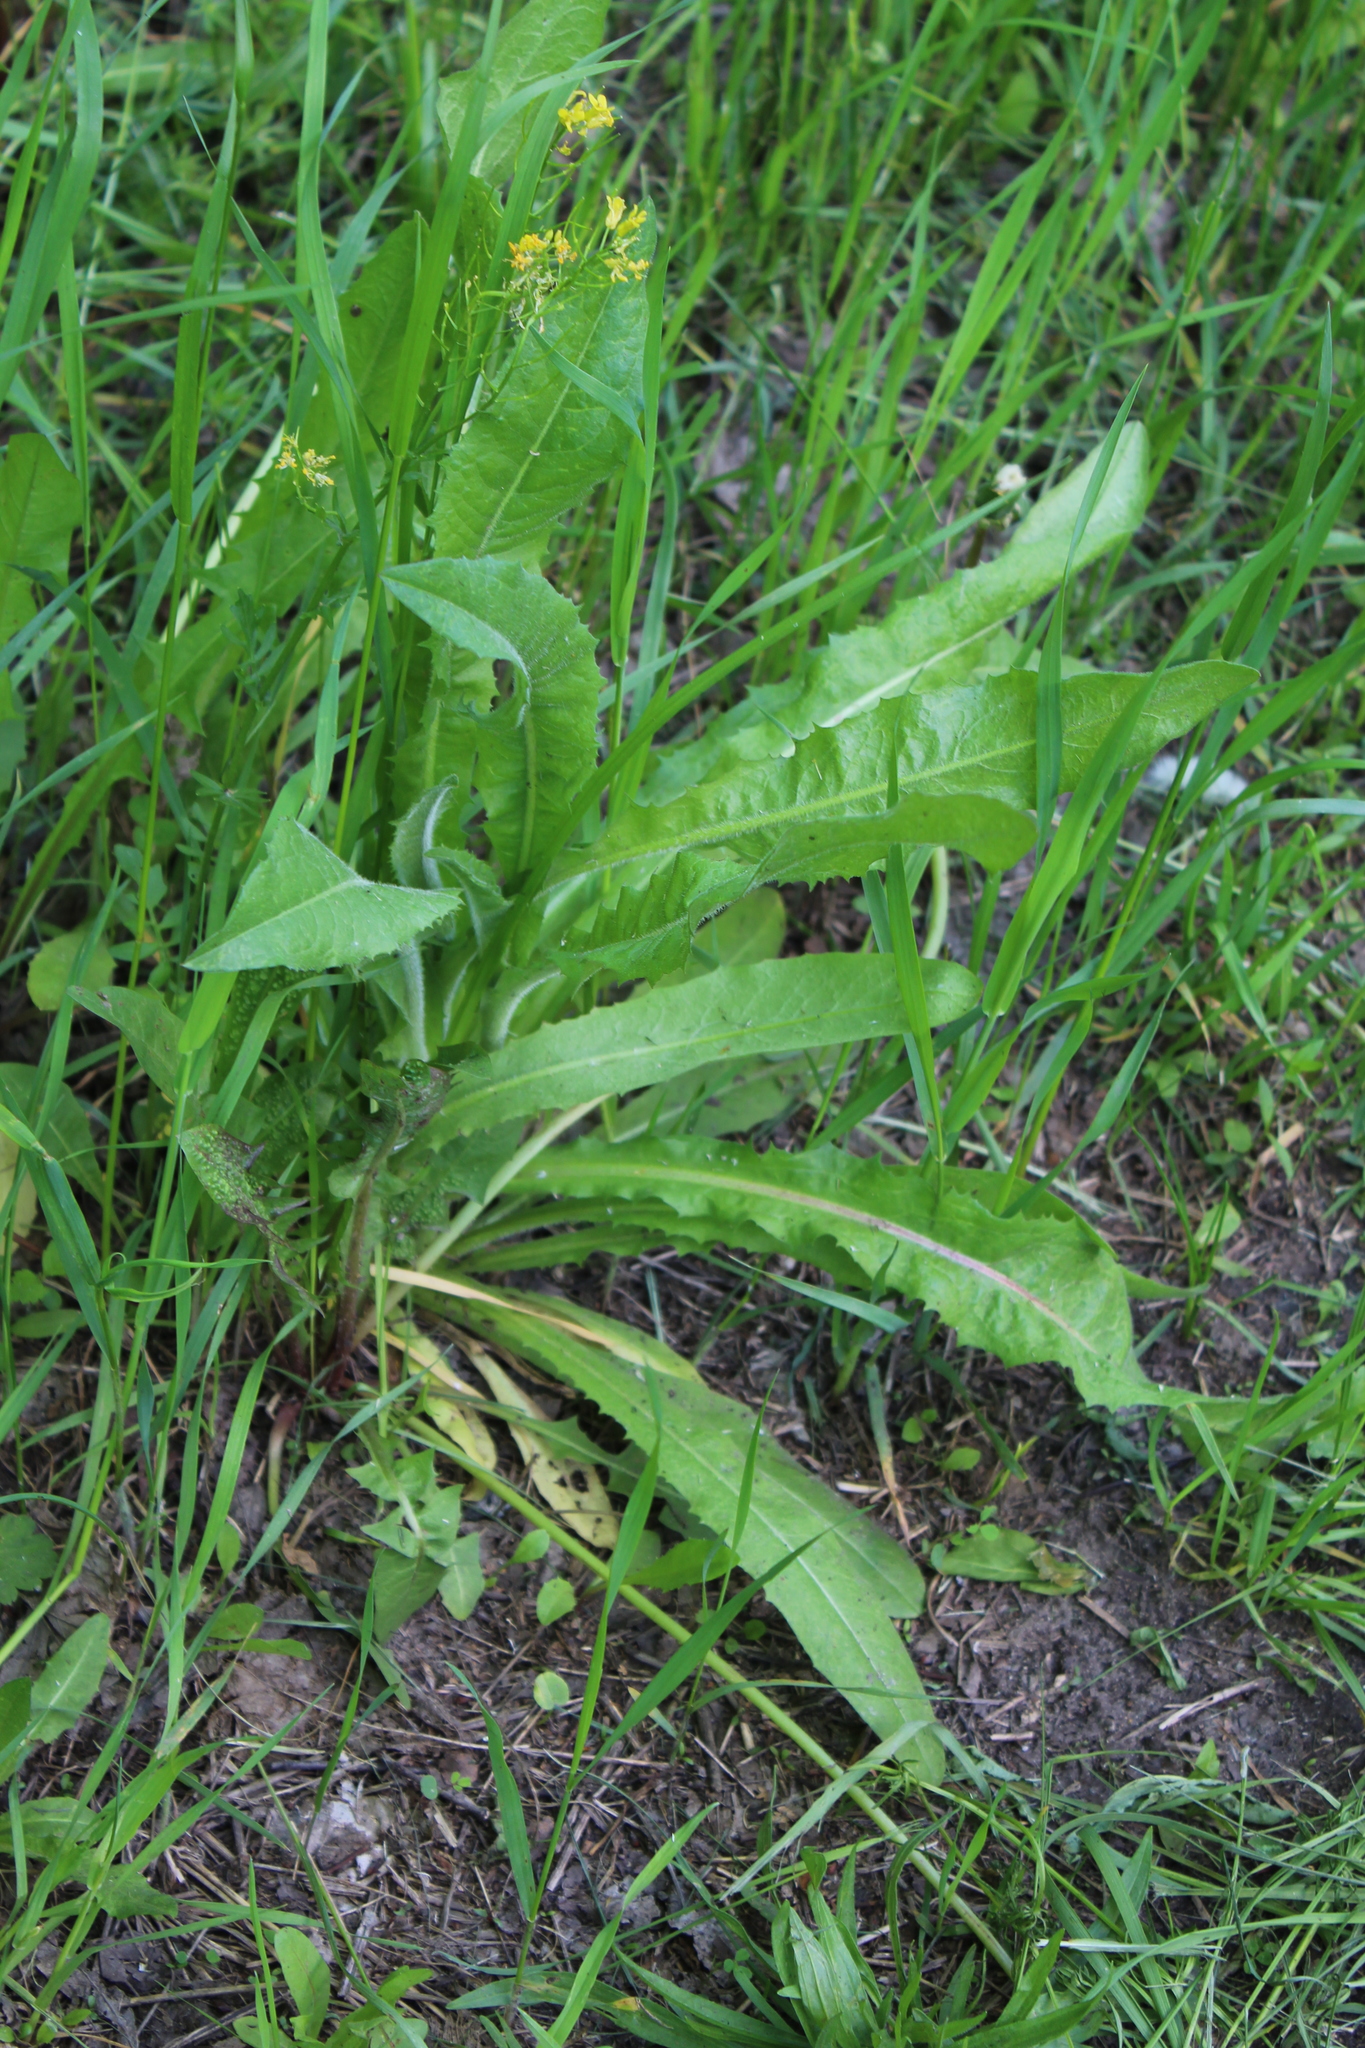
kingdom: Plantae
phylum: Tracheophyta
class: Magnoliopsida
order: Asterales
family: Asteraceae
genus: Cichorium
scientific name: Cichorium intybus
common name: Chicory
